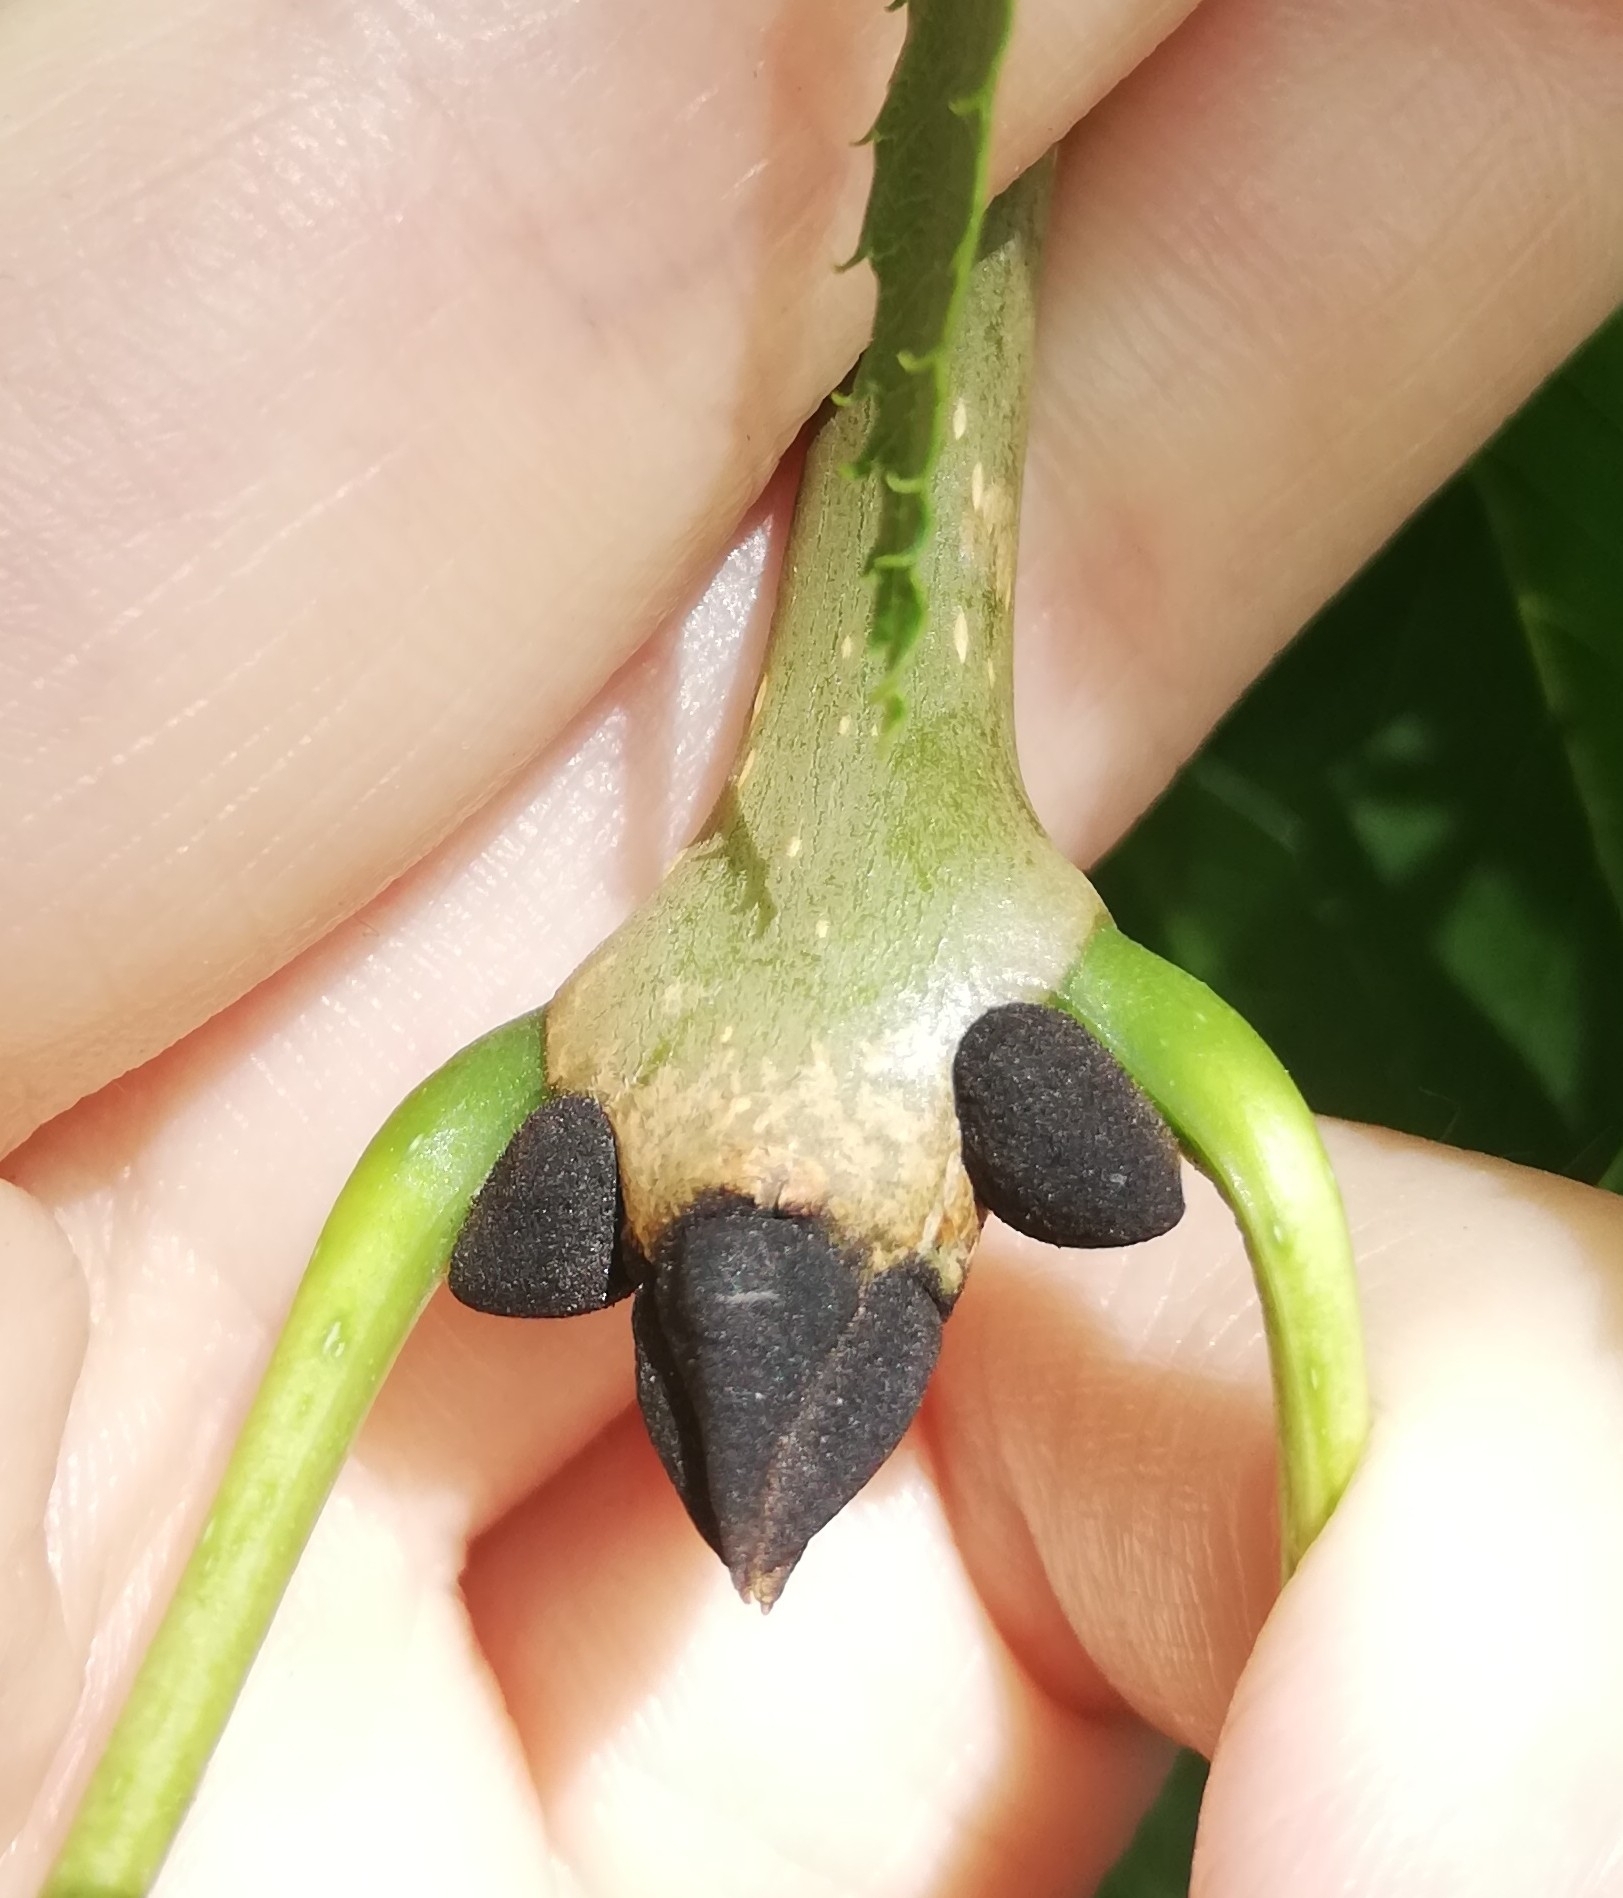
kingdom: Plantae
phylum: Tracheophyta
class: Magnoliopsida
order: Lamiales
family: Oleaceae
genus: Fraxinus
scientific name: Fraxinus excelsior
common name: European ash
